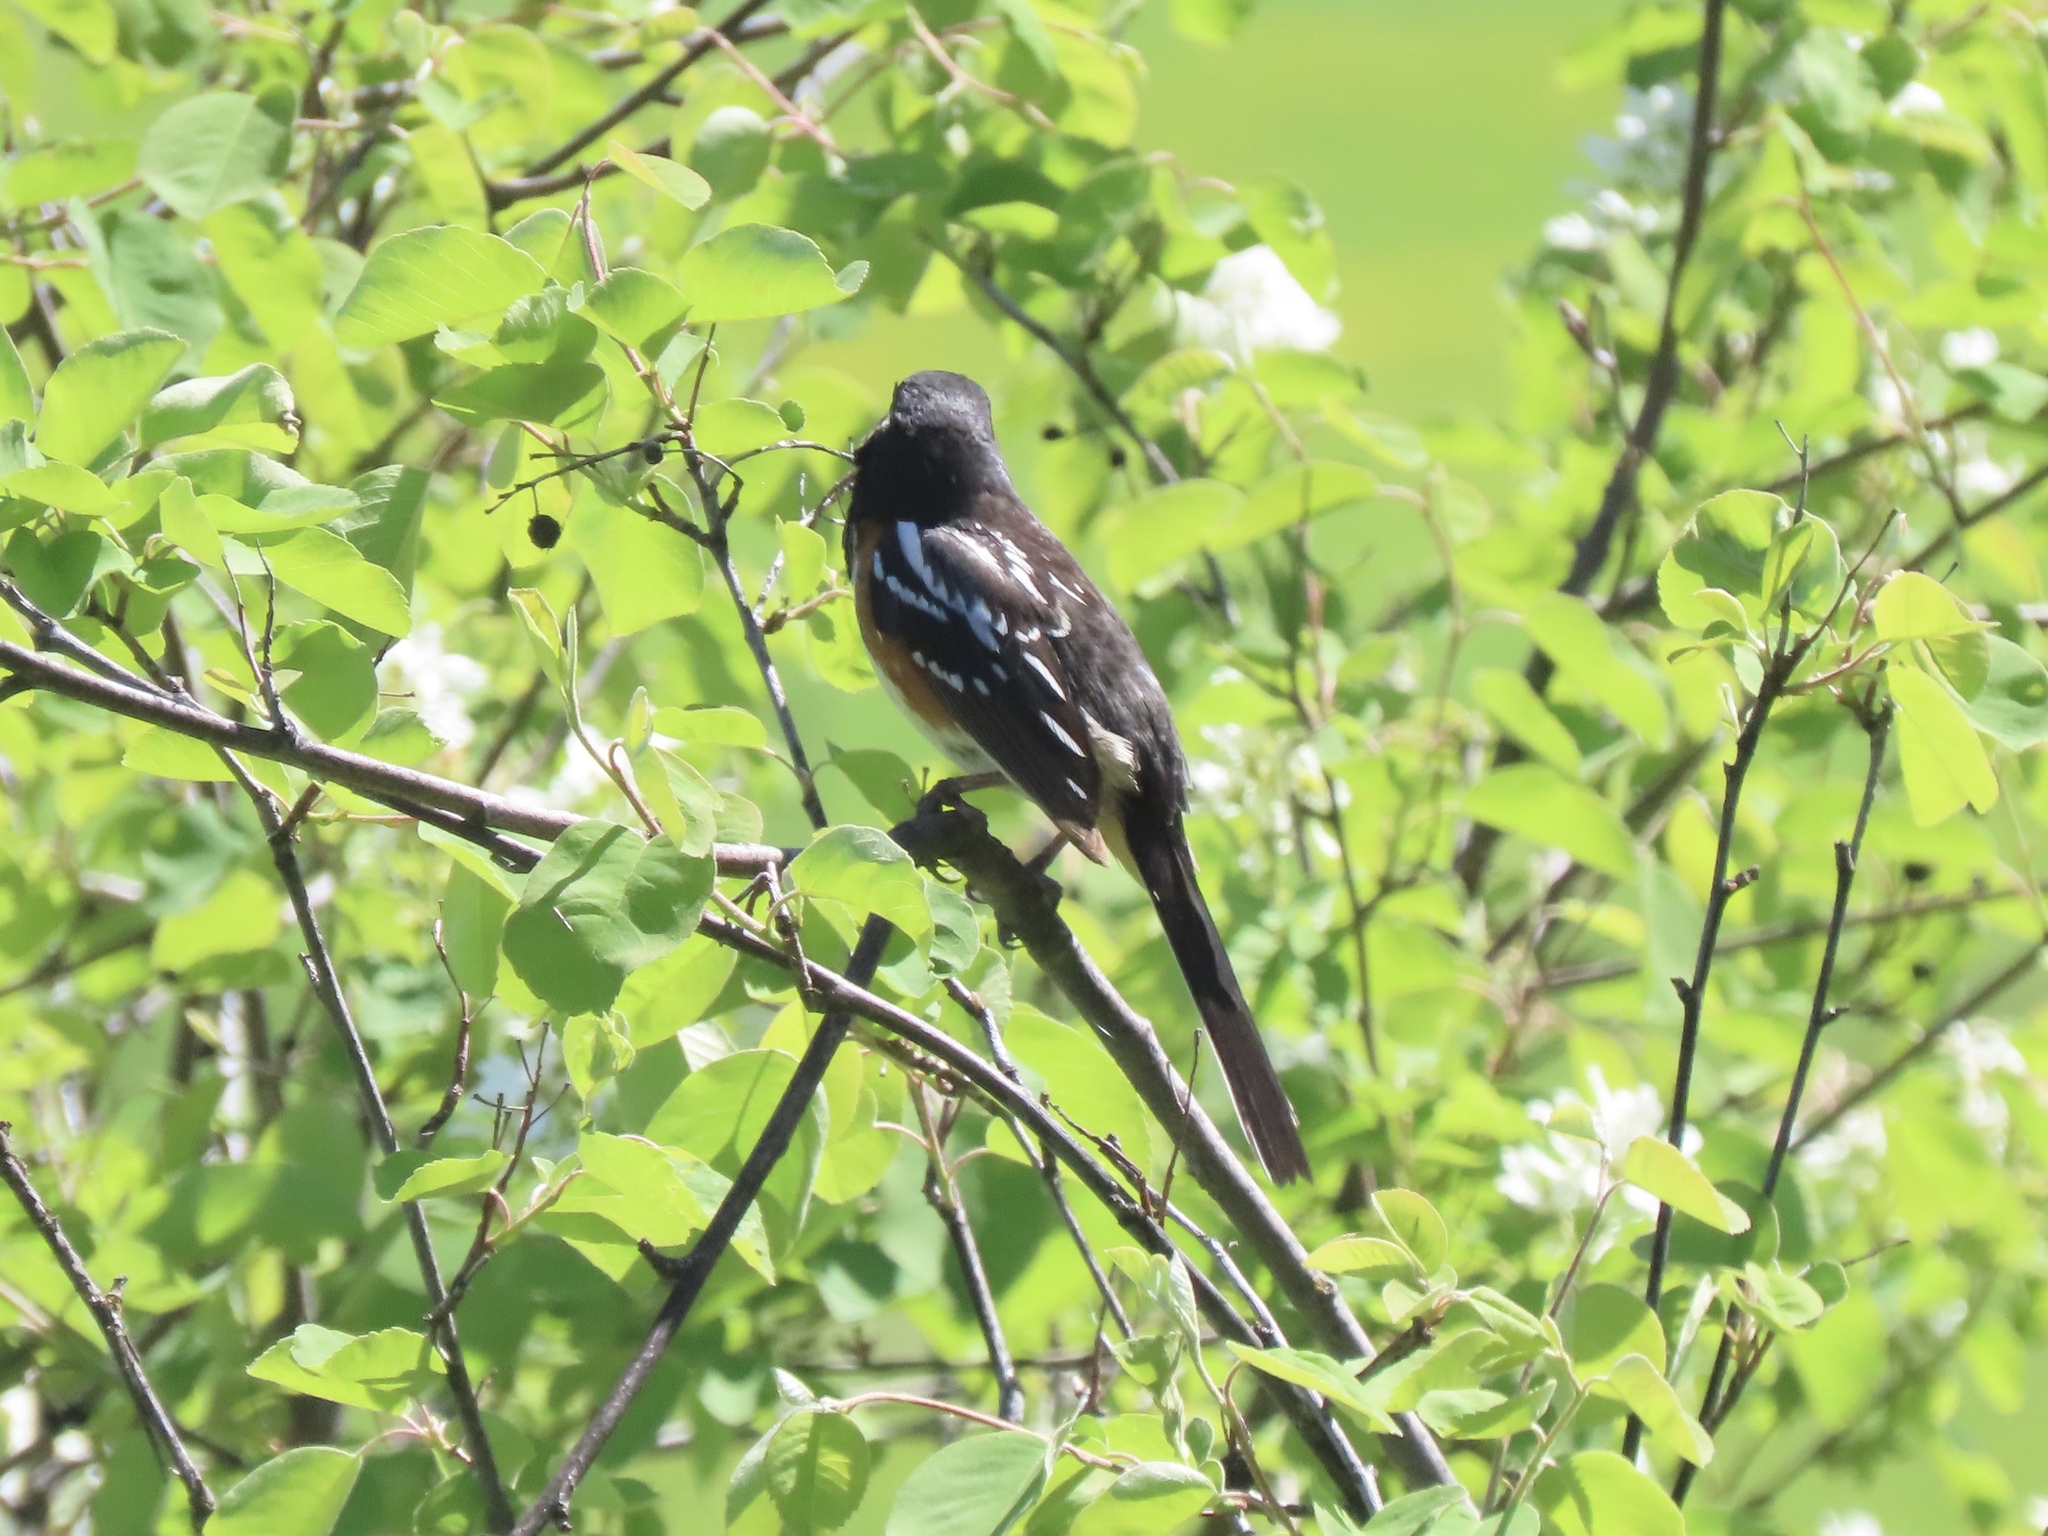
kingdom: Animalia
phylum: Chordata
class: Aves
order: Passeriformes
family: Passerellidae
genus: Pipilo
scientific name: Pipilo maculatus
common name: Spotted towhee
